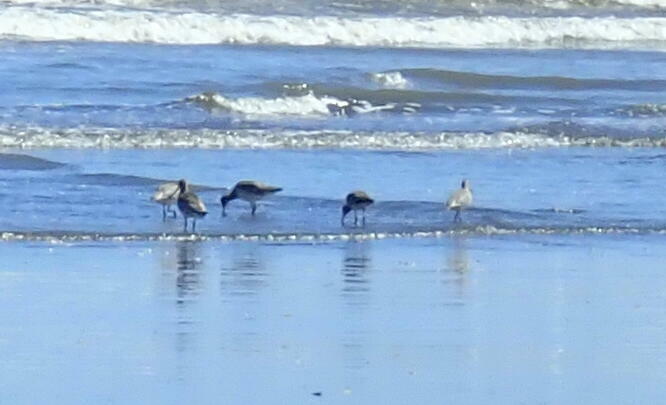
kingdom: Animalia
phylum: Chordata
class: Aves
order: Charadriiformes
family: Scolopacidae
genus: Limosa
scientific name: Limosa lapponica
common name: Bar-tailed godwit
